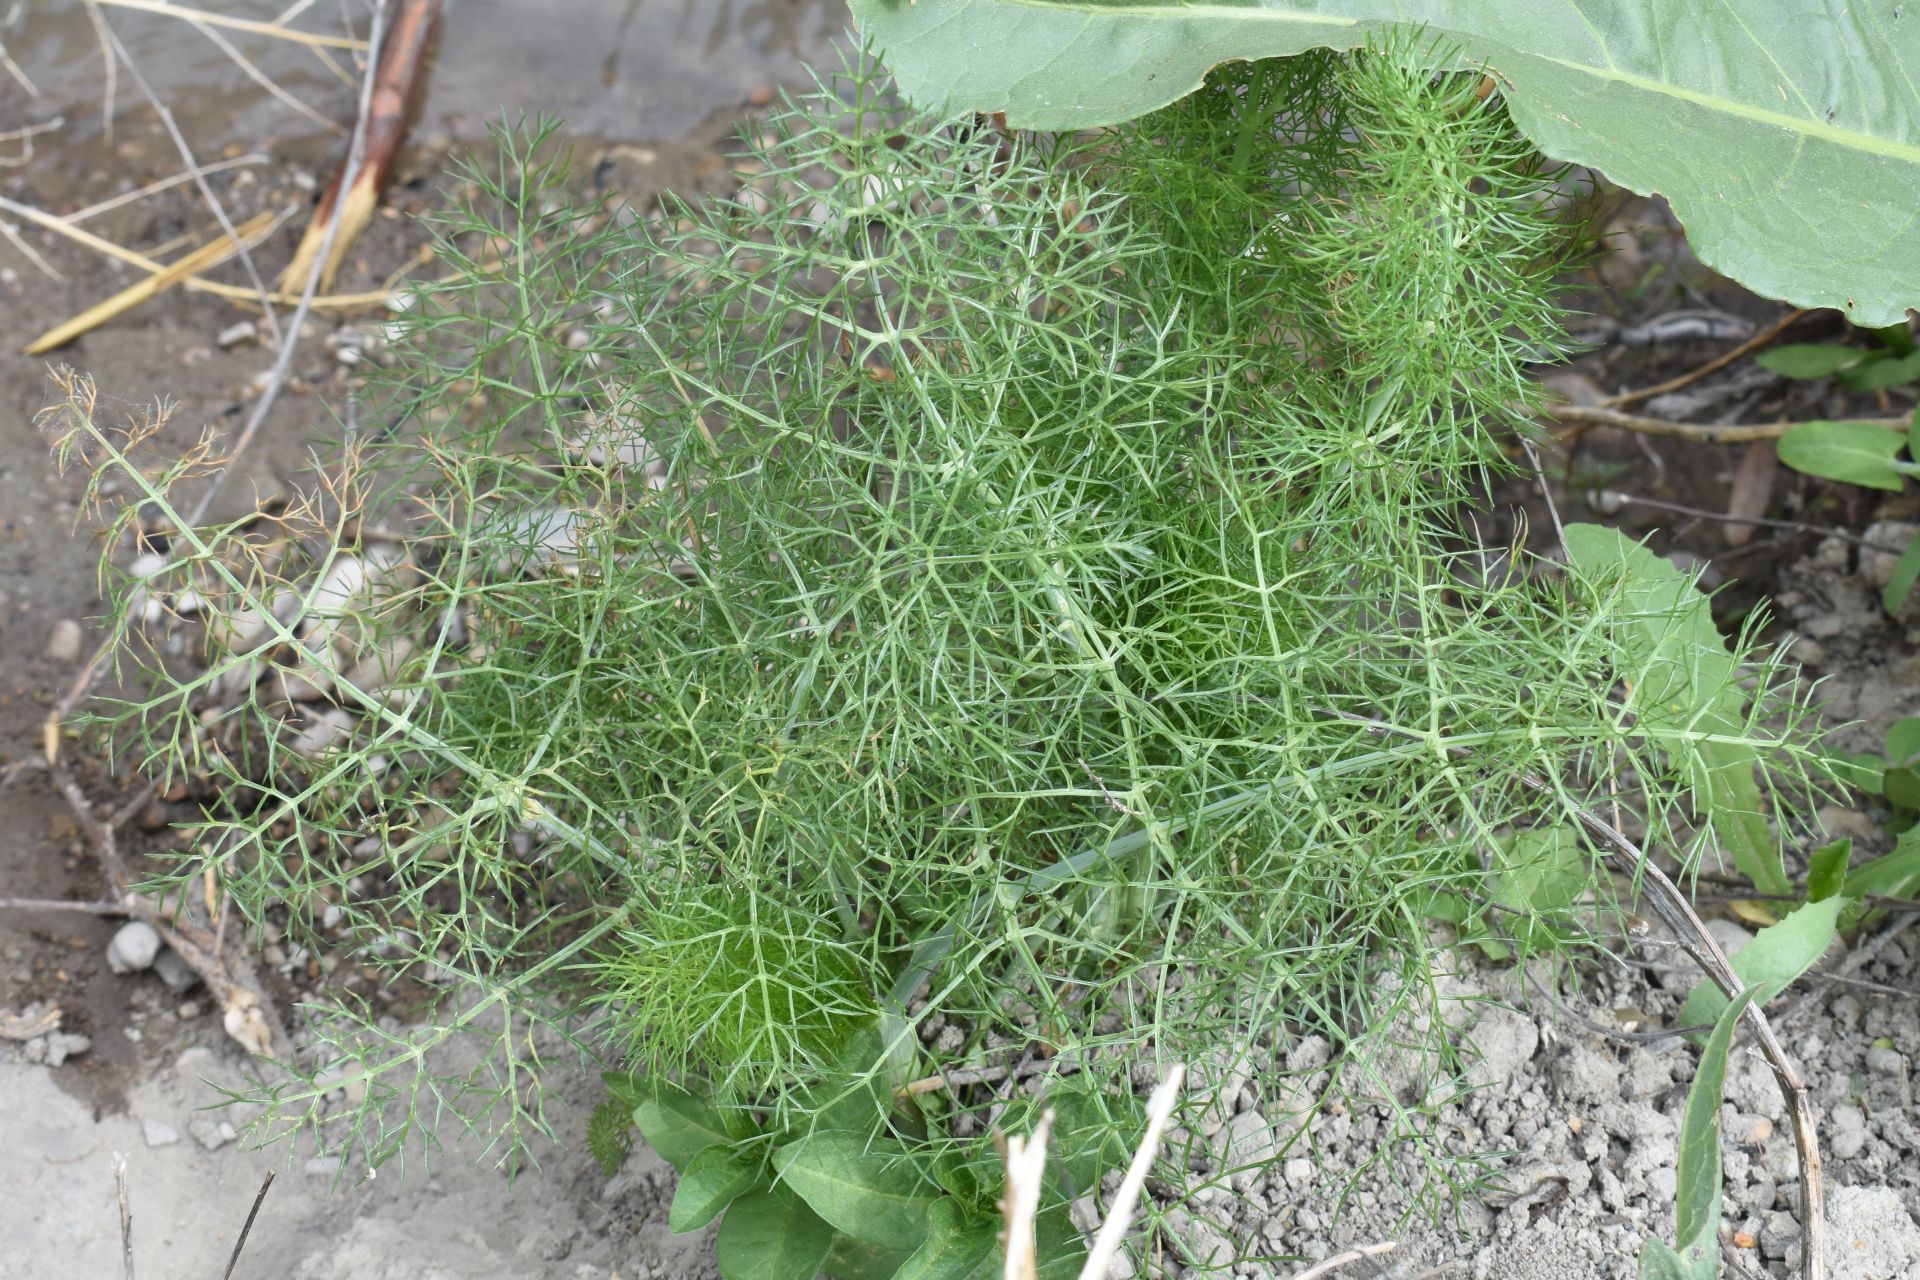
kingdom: Plantae
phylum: Tracheophyta
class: Magnoliopsida
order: Apiales
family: Apiaceae
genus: Foeniculum
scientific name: Foeniculum vulgare
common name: Fennel
